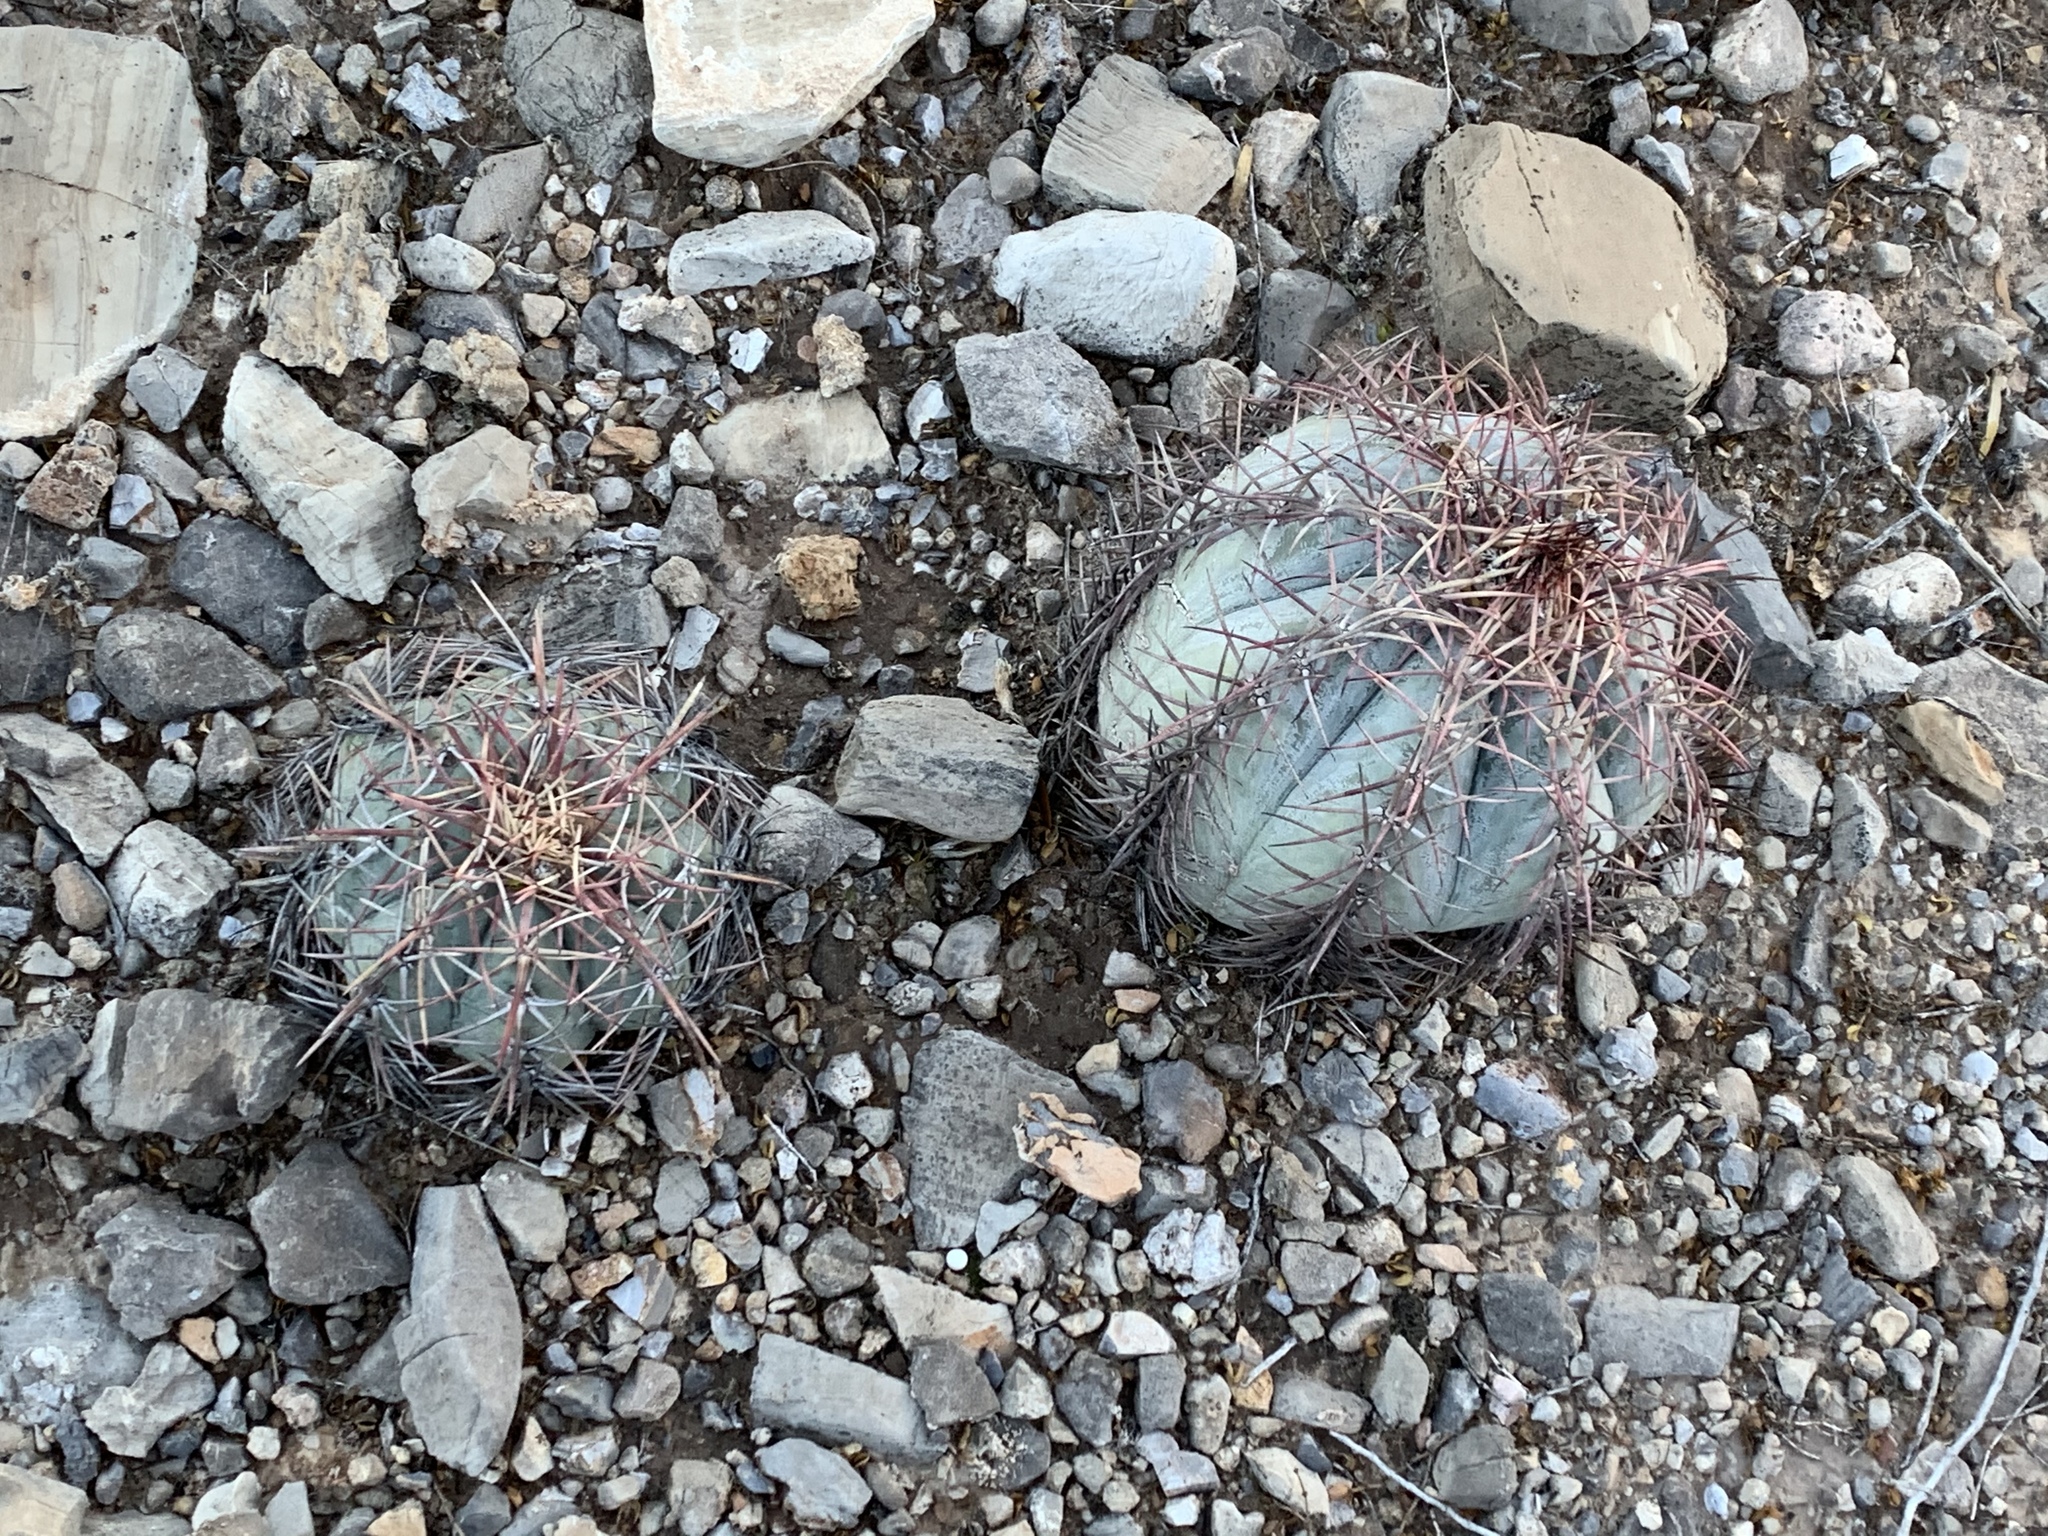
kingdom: Plantae
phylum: Tracheophyta
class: Magnoliopsida
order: Caryophyllales
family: Cactaceae
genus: Echinocactus
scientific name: Echinocactus horizonthalonius
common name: Devilshead
